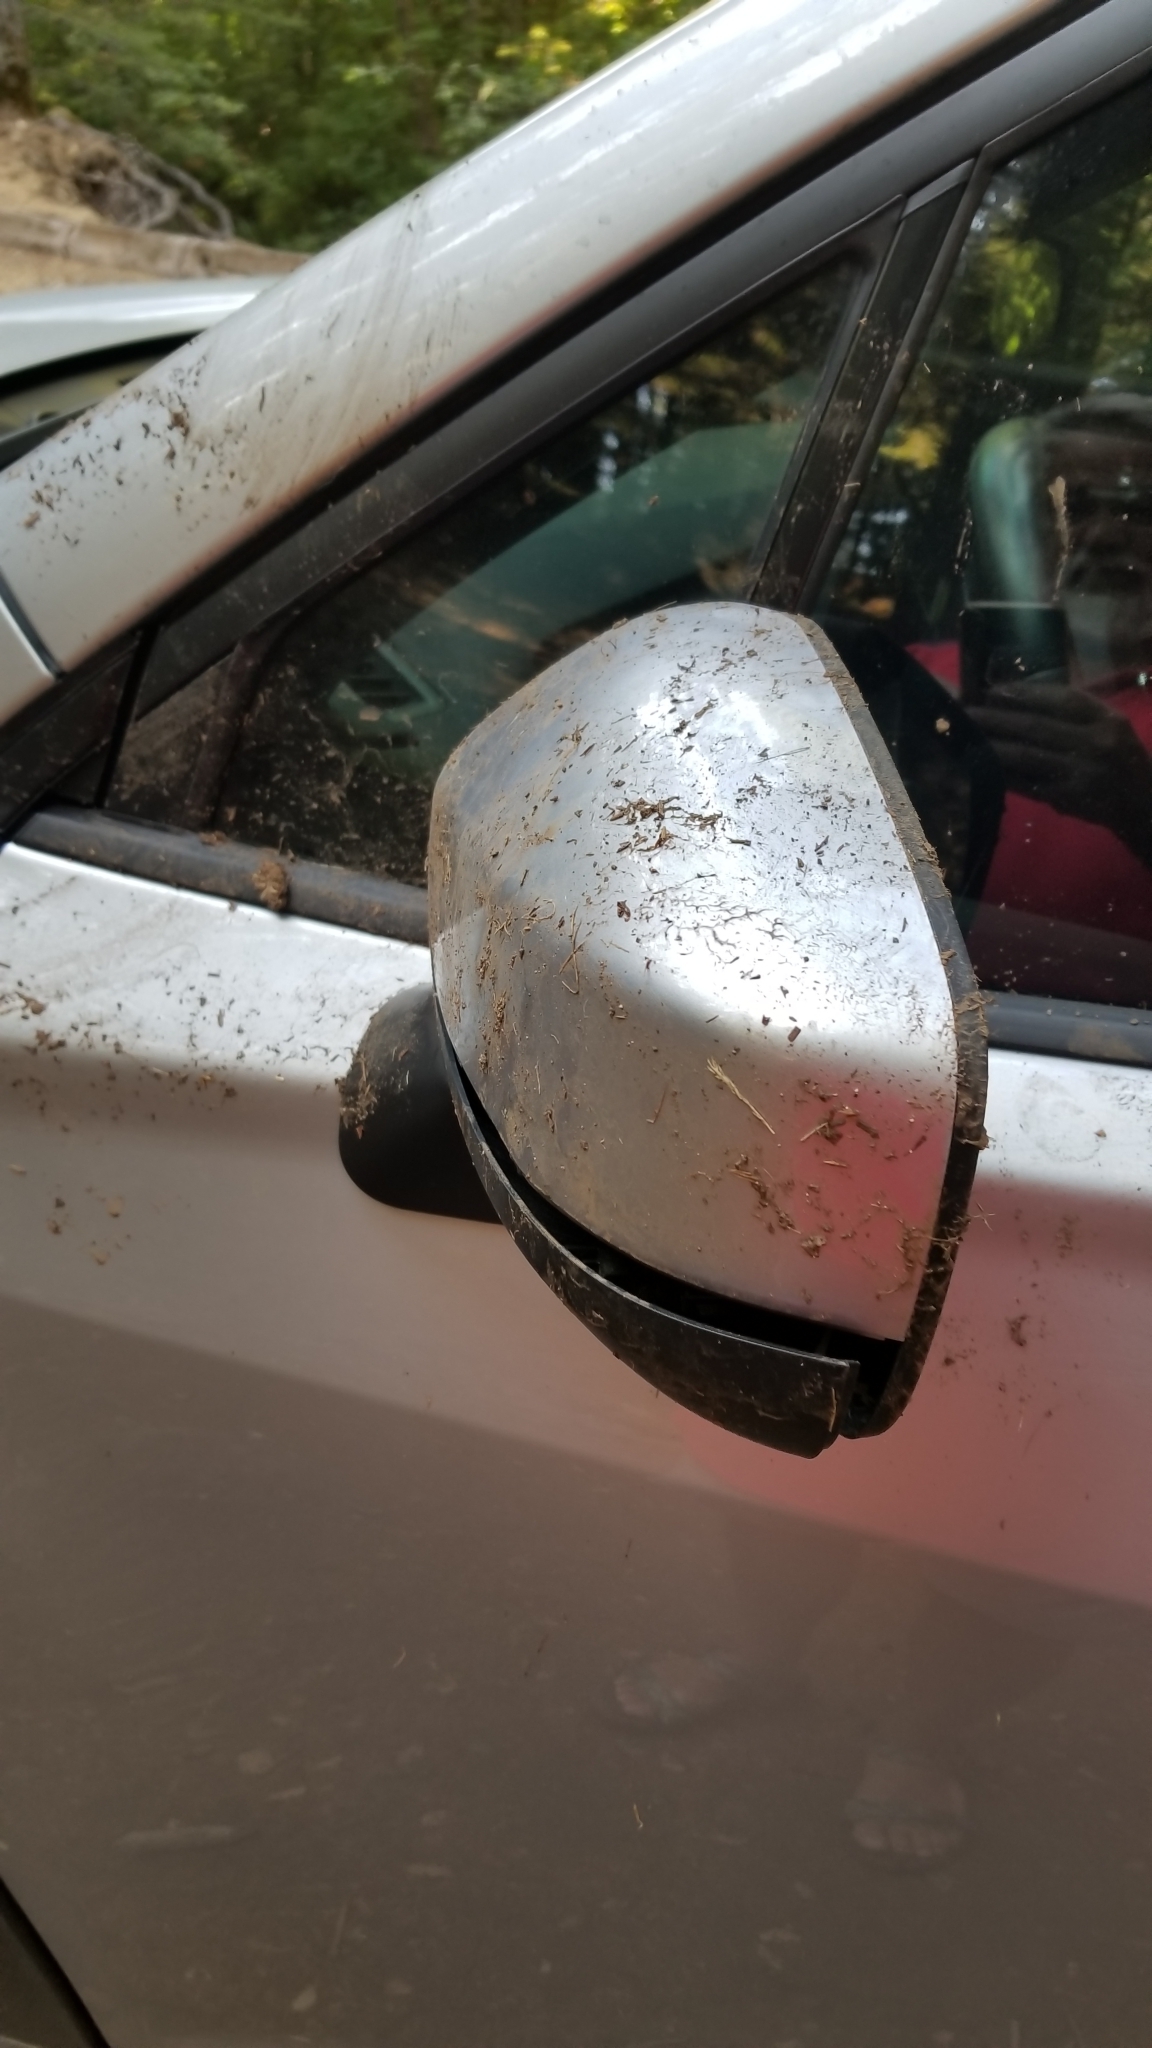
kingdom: Animalia
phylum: Chordata
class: Mammalia
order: Carnivora
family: Ursidae
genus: Ursus
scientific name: Ursus americanus
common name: American black bear
